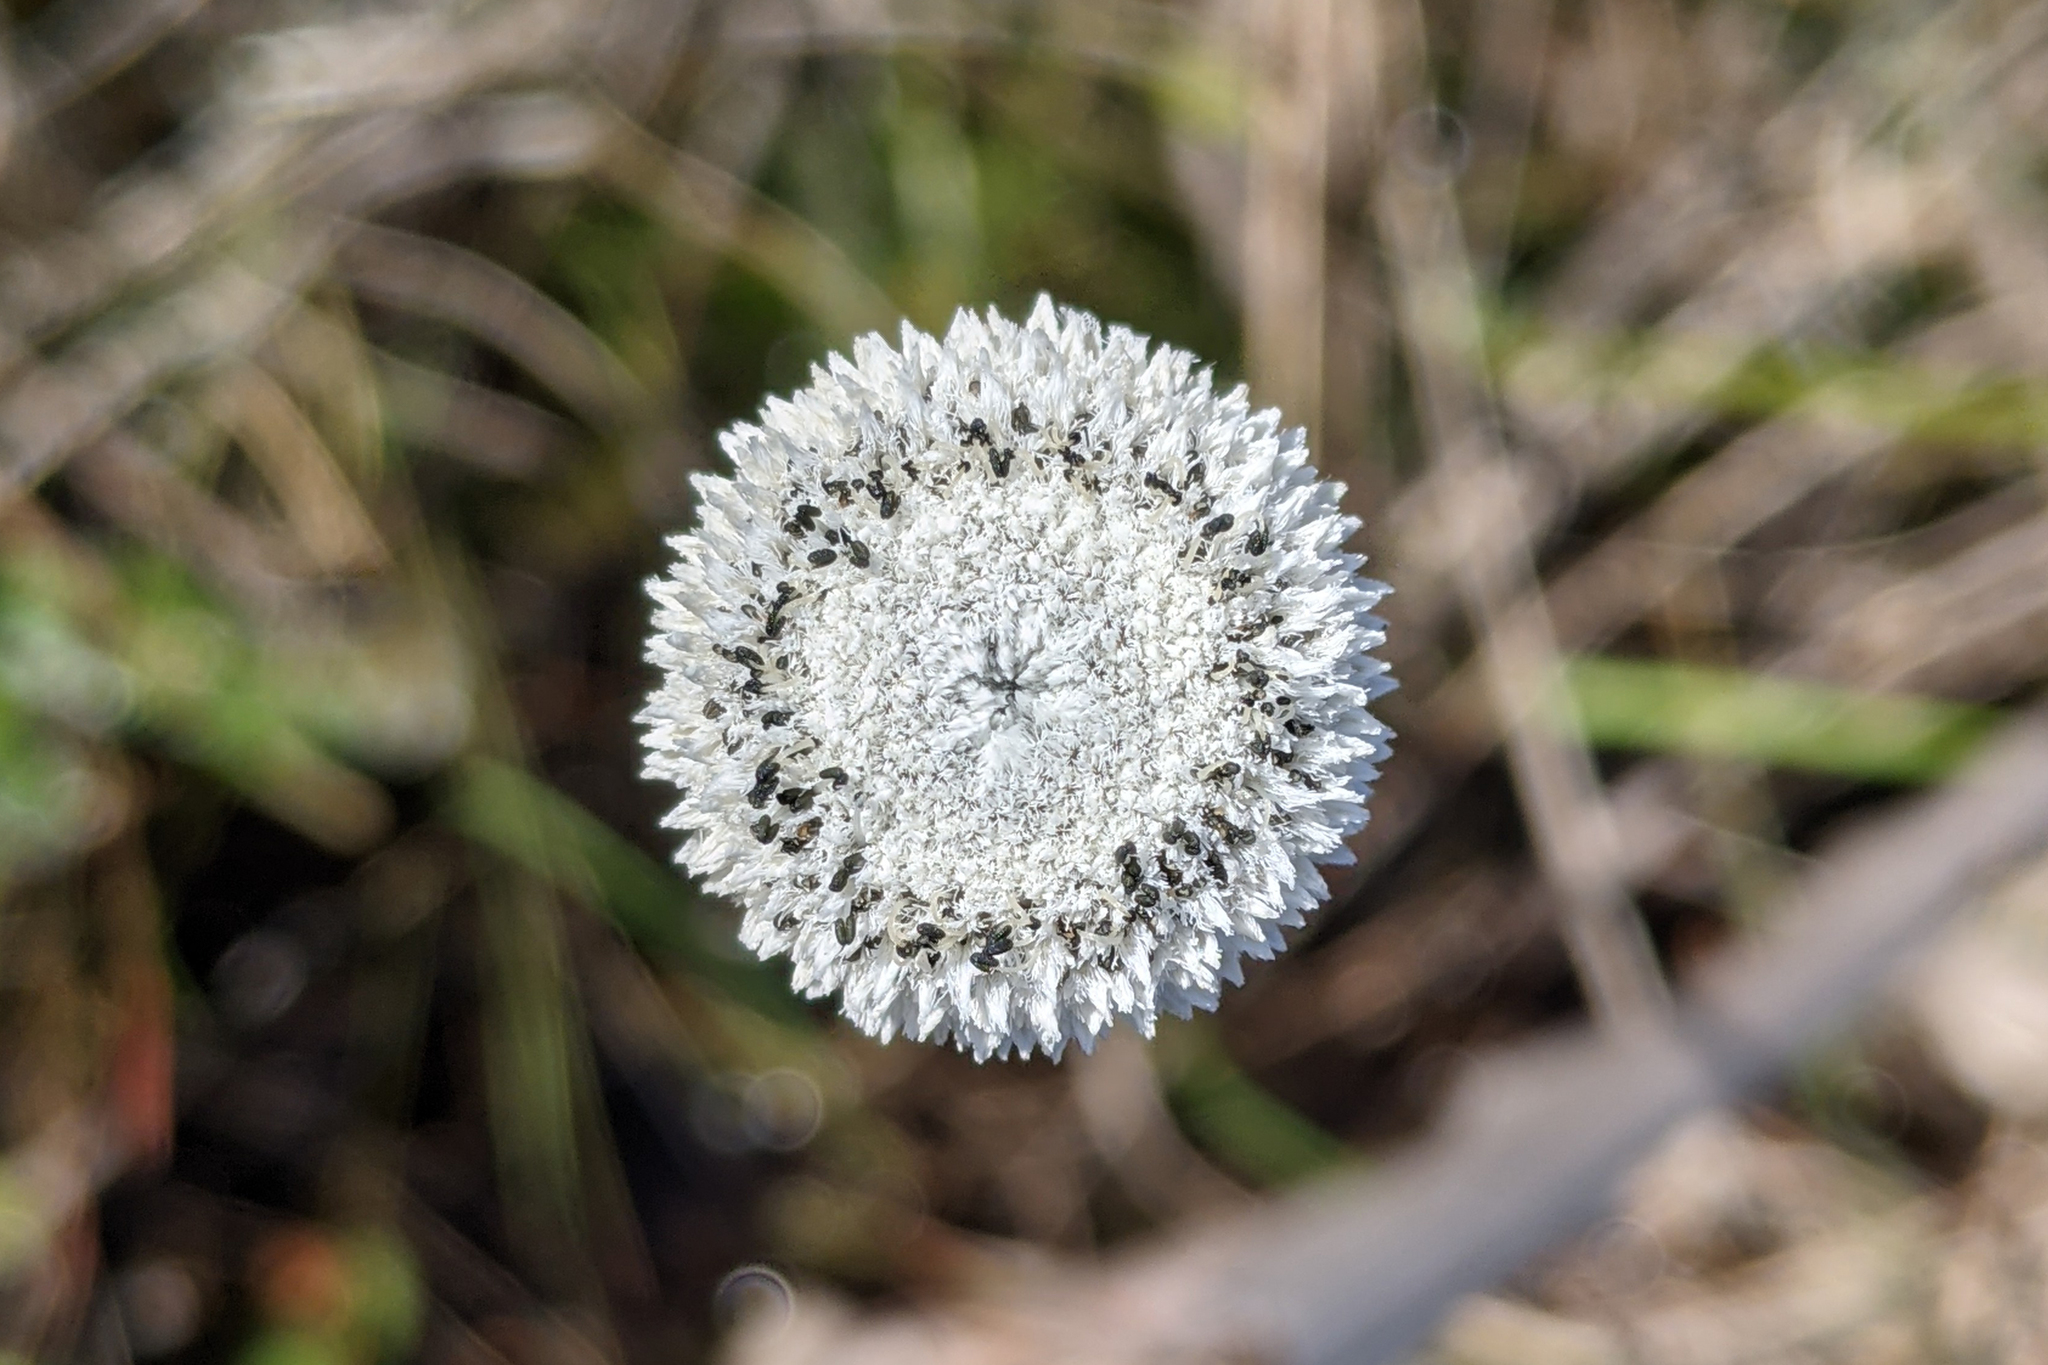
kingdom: Plantae
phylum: Tracheophyta
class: Liliopsida
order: Poales
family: Eriocaulaceae
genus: Eriocaulon
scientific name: Eriocaulon compressum
